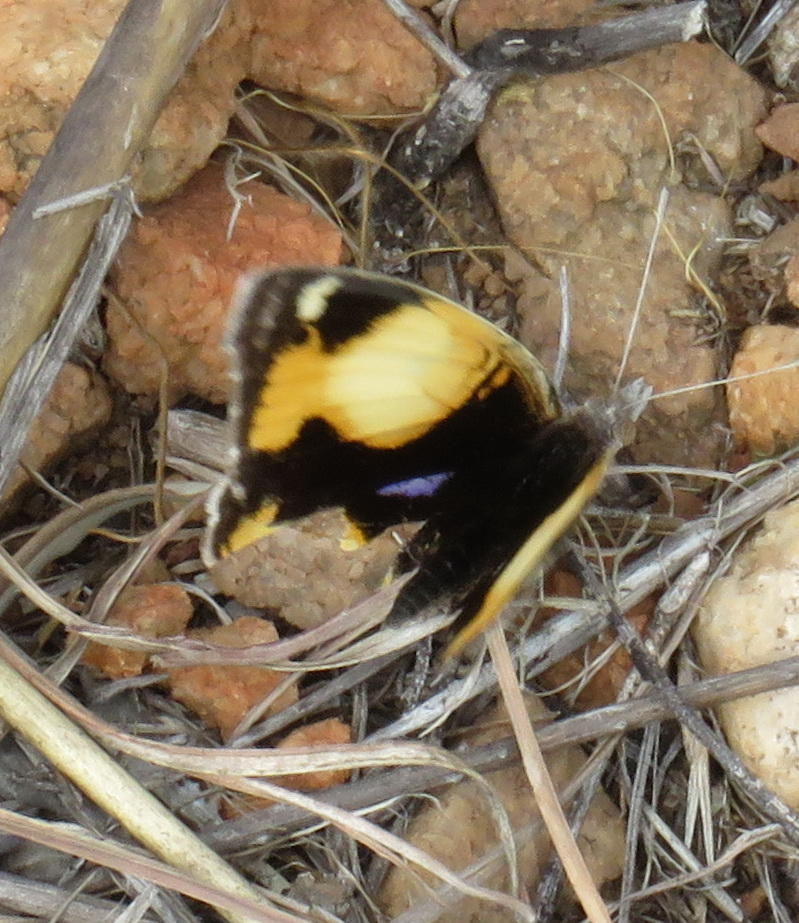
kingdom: Animalia
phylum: Arthropoda
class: Insecta
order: Lepidoptera
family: Nymphalidae
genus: Junonia
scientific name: Junonia hierta
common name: Yellow pansy
